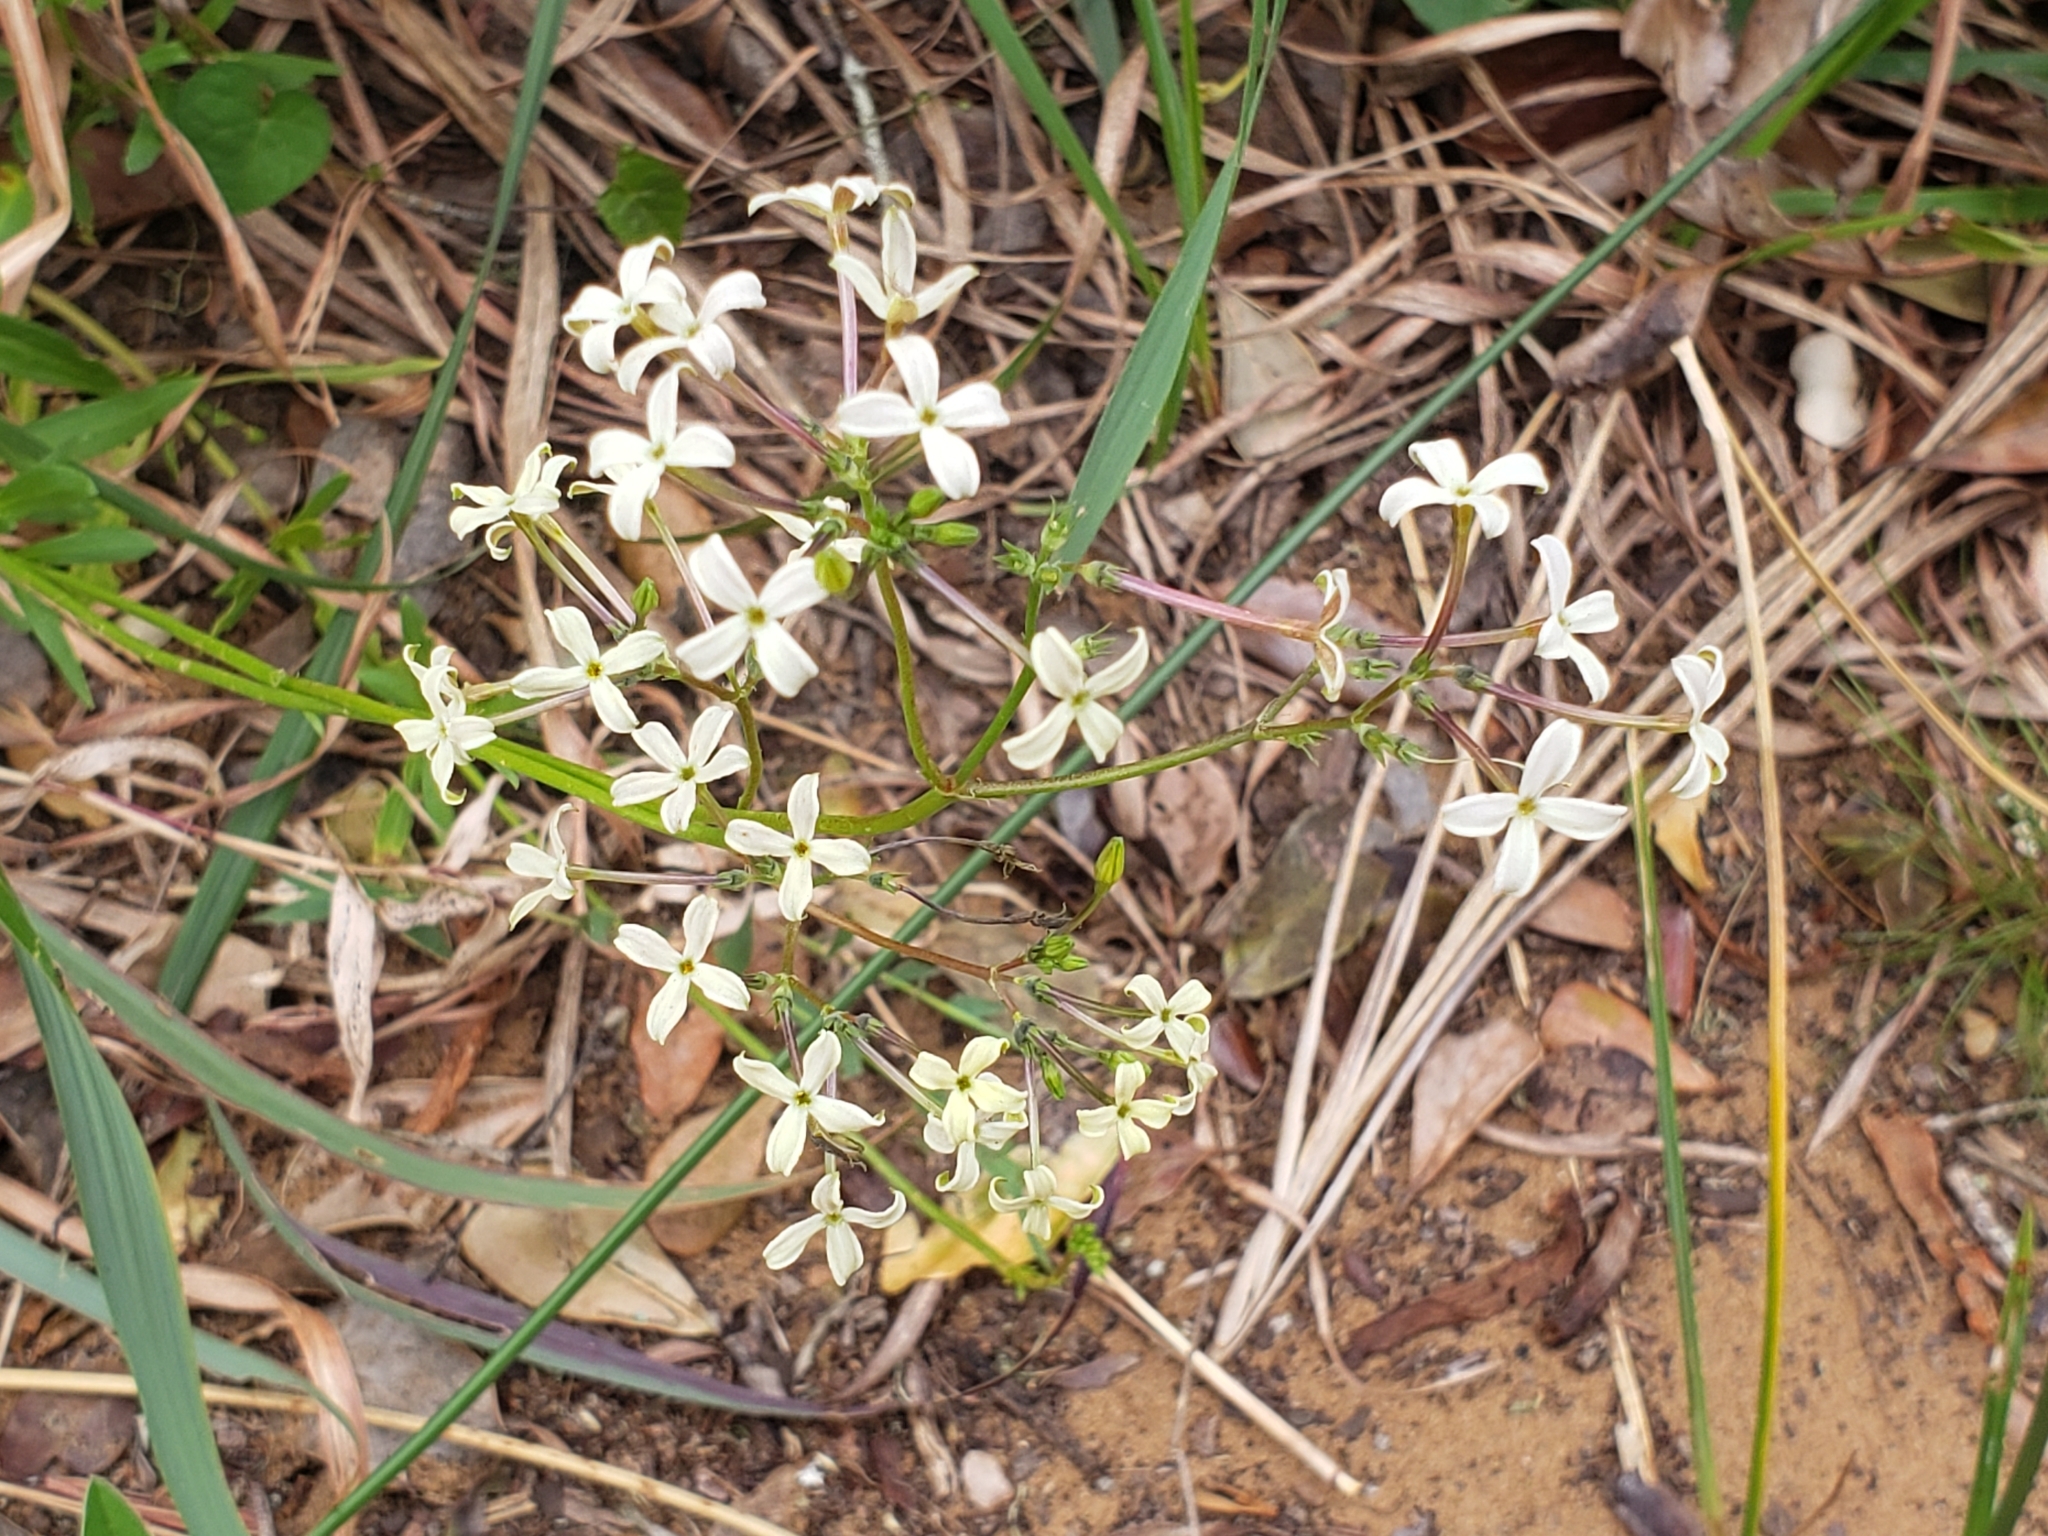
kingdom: Plantae
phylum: Tracheophyta
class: Magnoliopsida
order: Gentianales
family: Rubiaceae
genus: Kohautia
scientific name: Kohautia amatymbica
